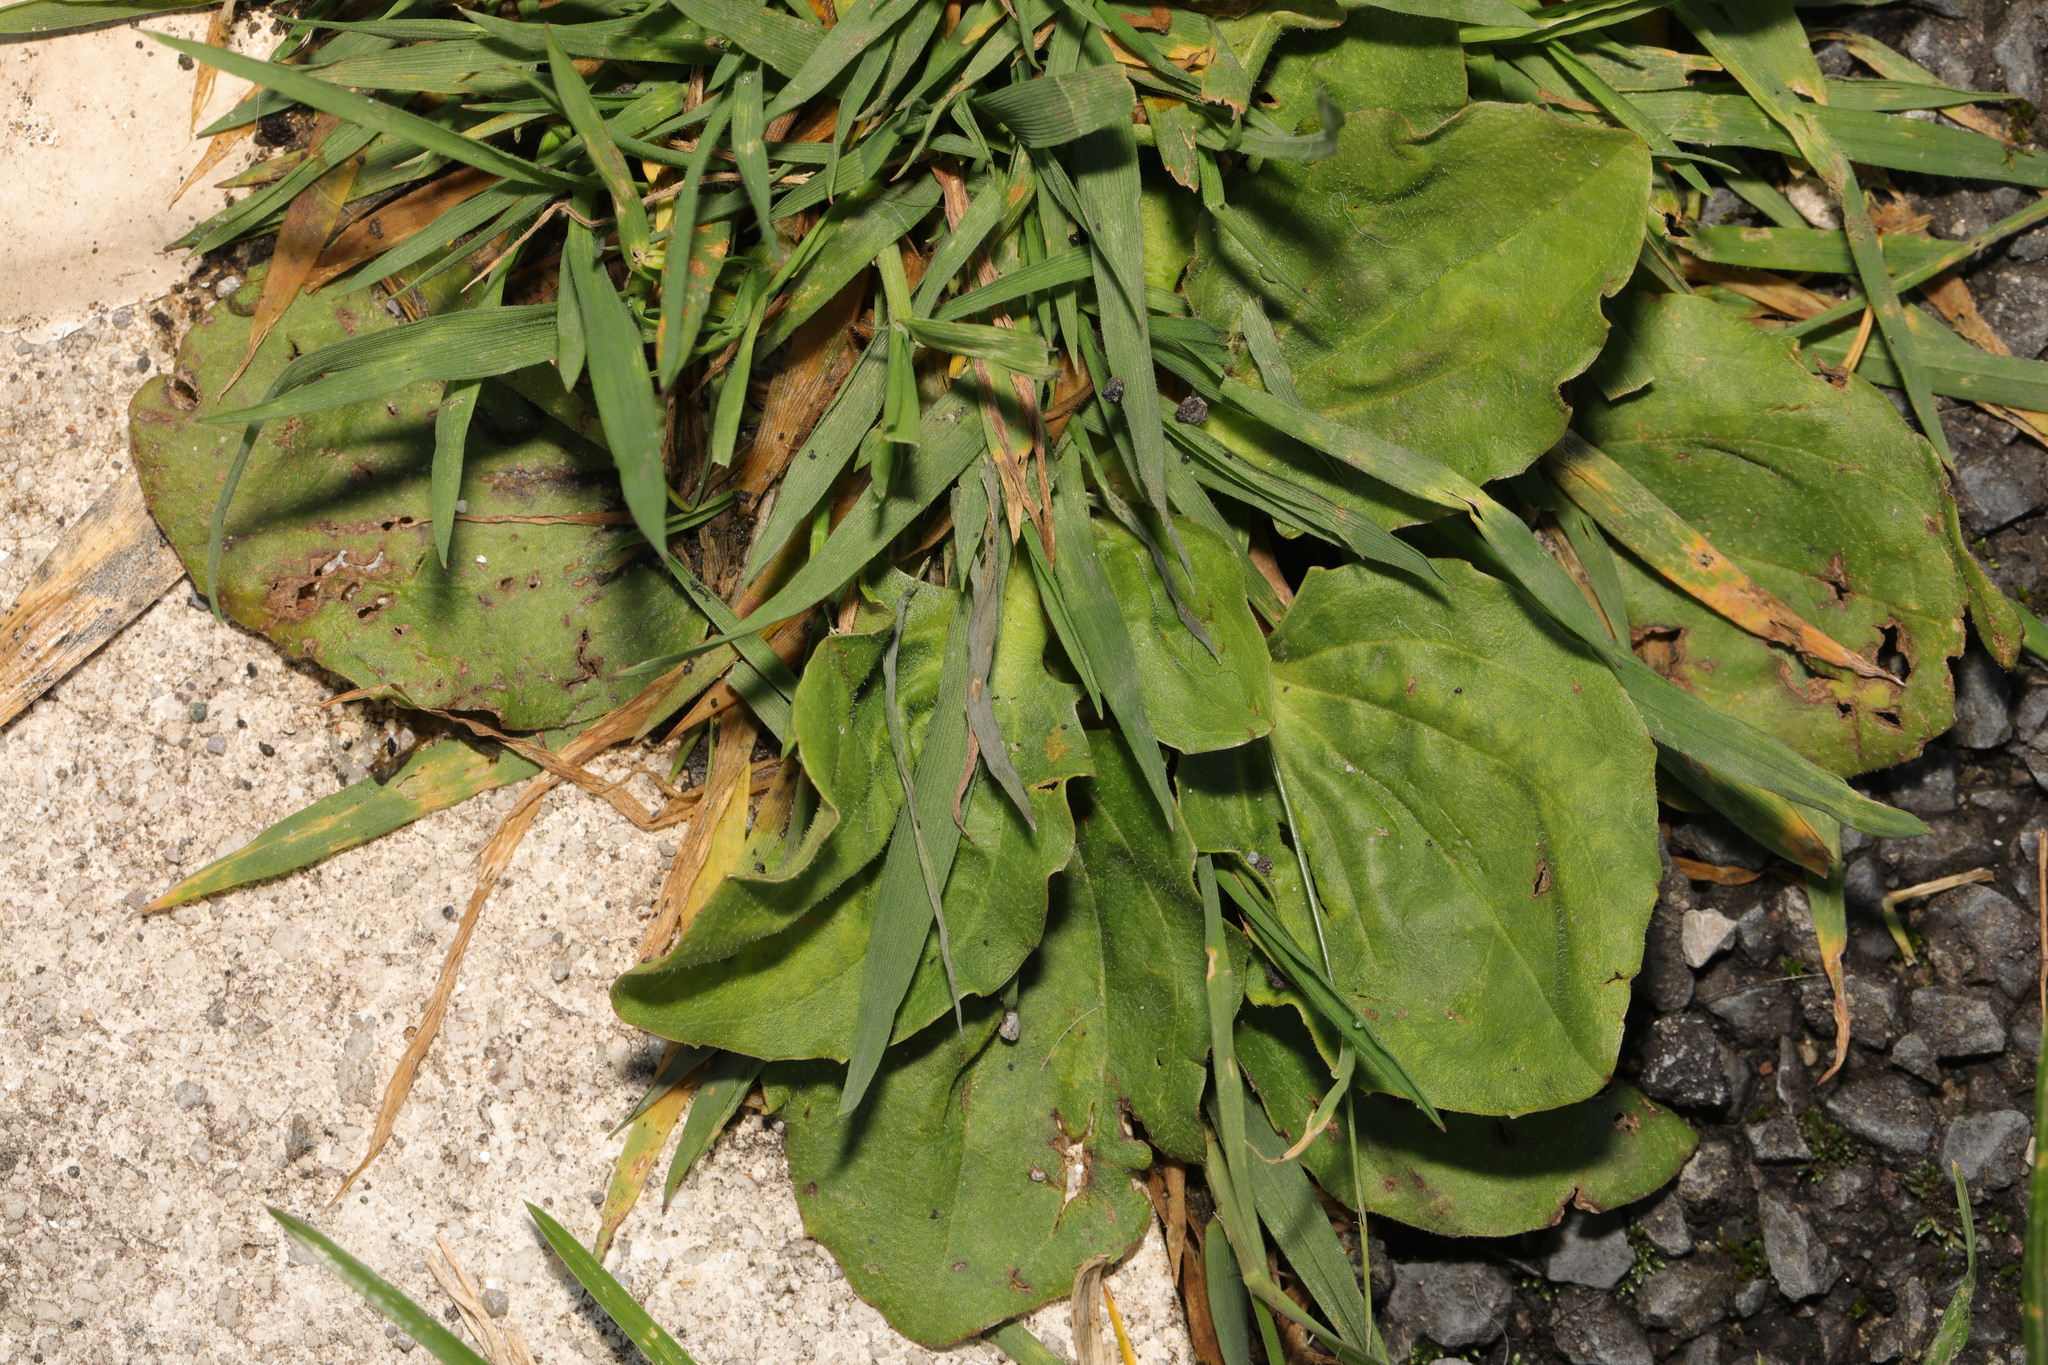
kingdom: Plantae
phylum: Tracheophyta
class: Magnoliopsida
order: Lamiales
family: Plantaginaceae
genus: Plantago
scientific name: Plantago major
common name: Common plantain
